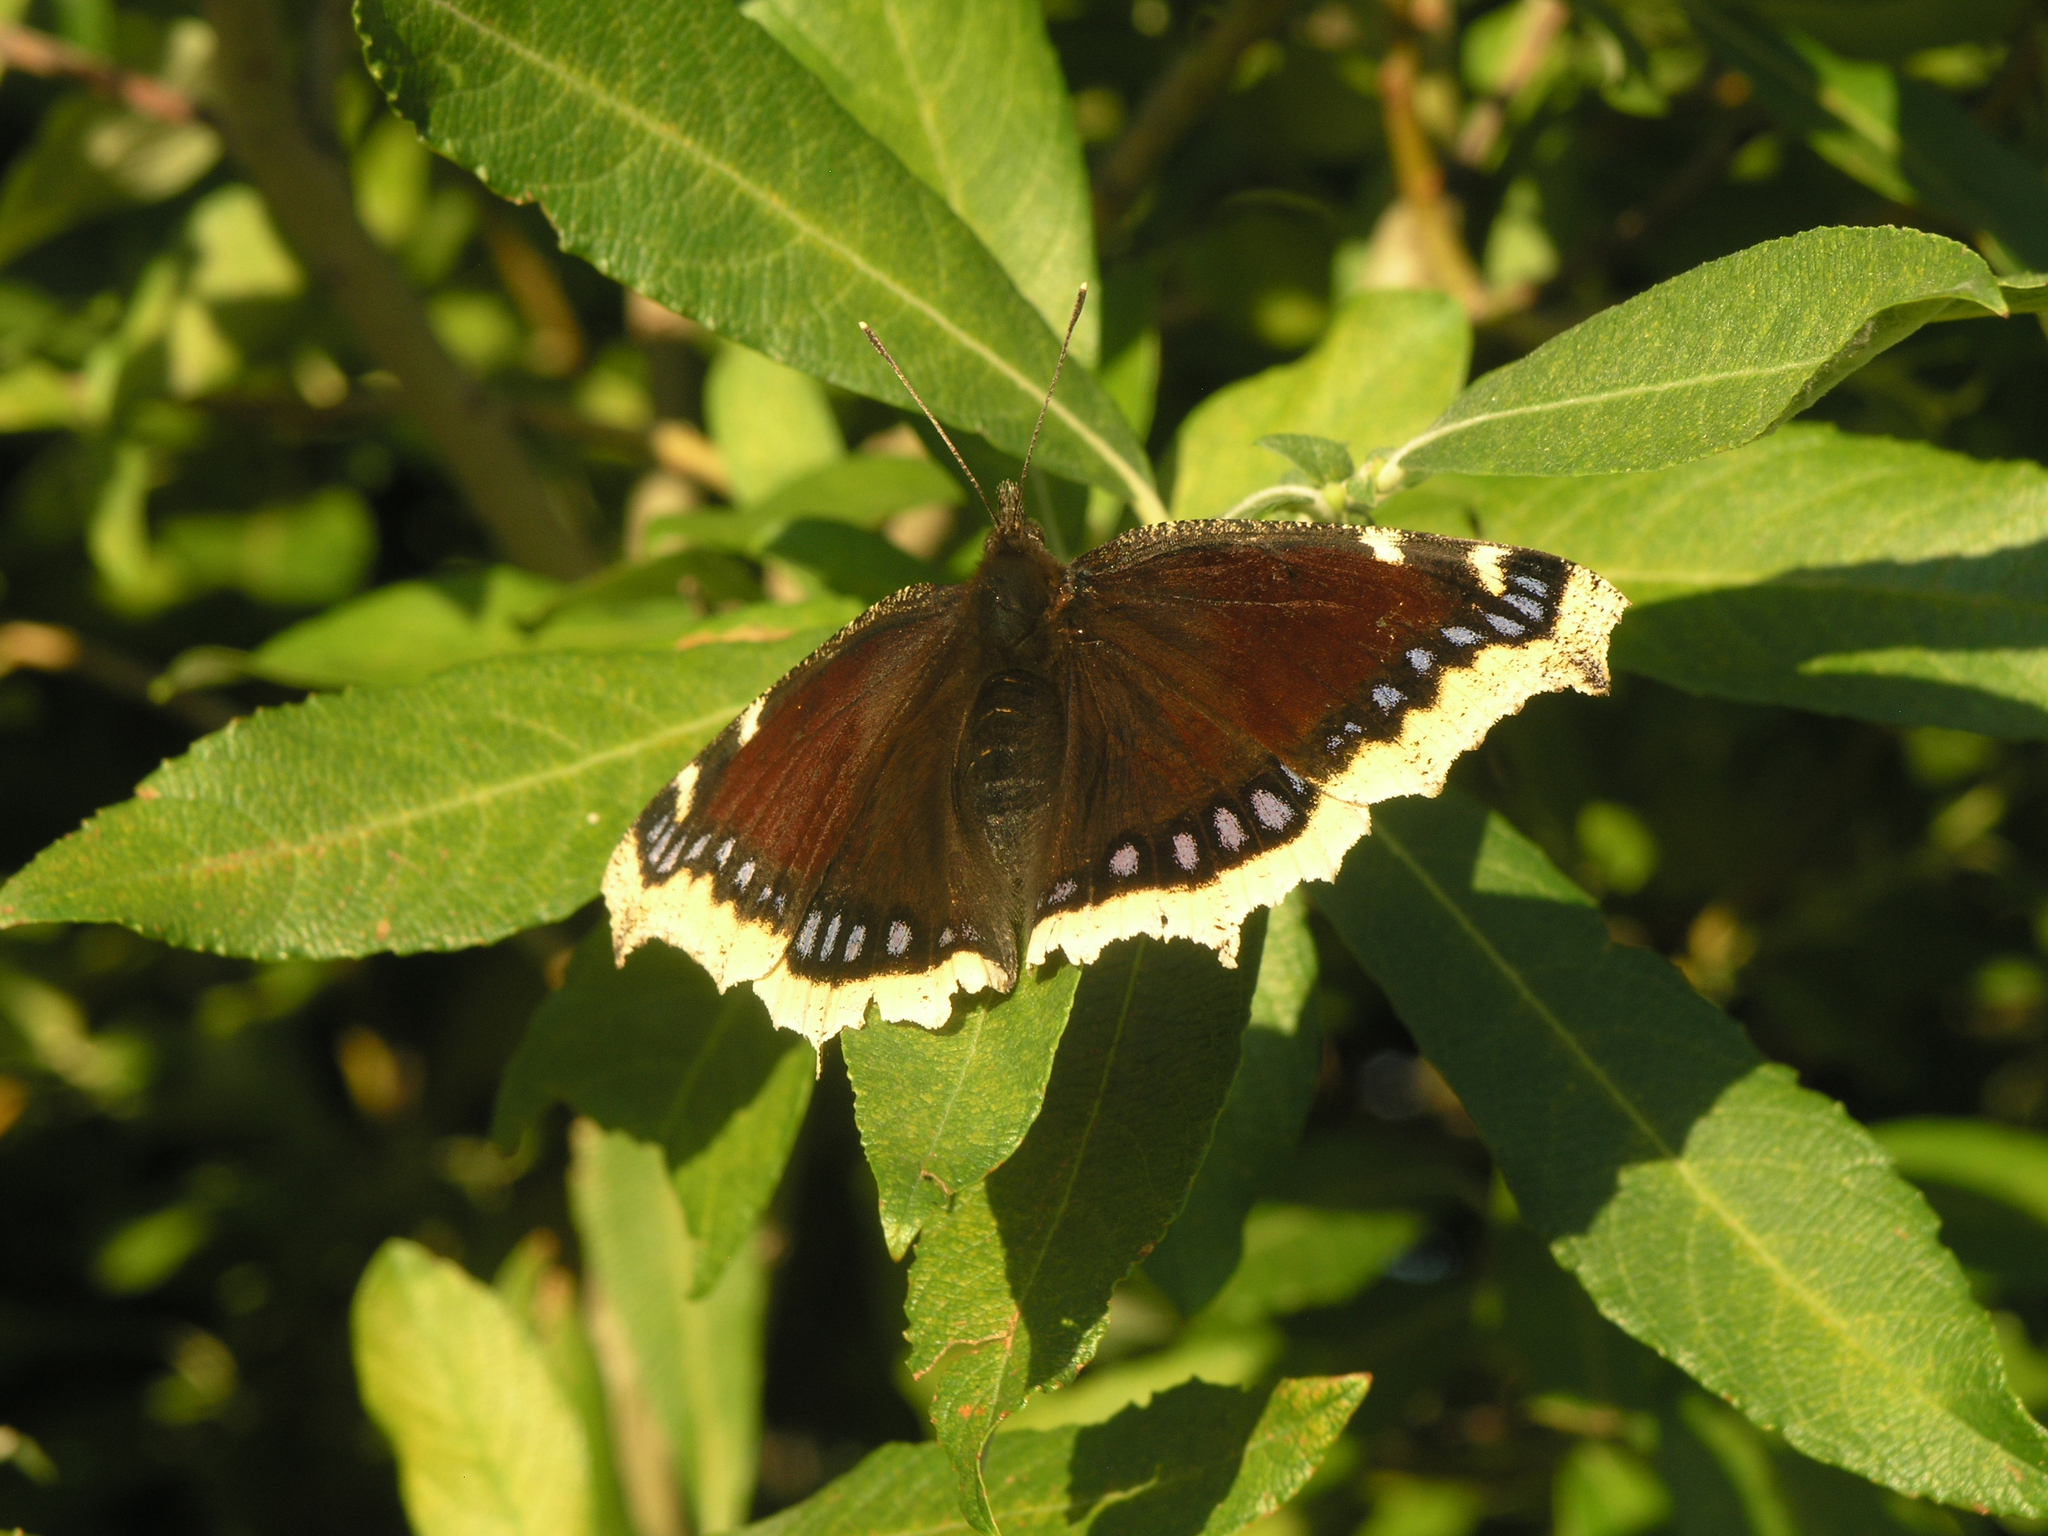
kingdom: Animalia
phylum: Arthropoda
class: Insecta
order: Lepidoptera
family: Nymphalidae
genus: Nymphalis
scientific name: Nymphalis antiopa
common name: Camberwell beauty
